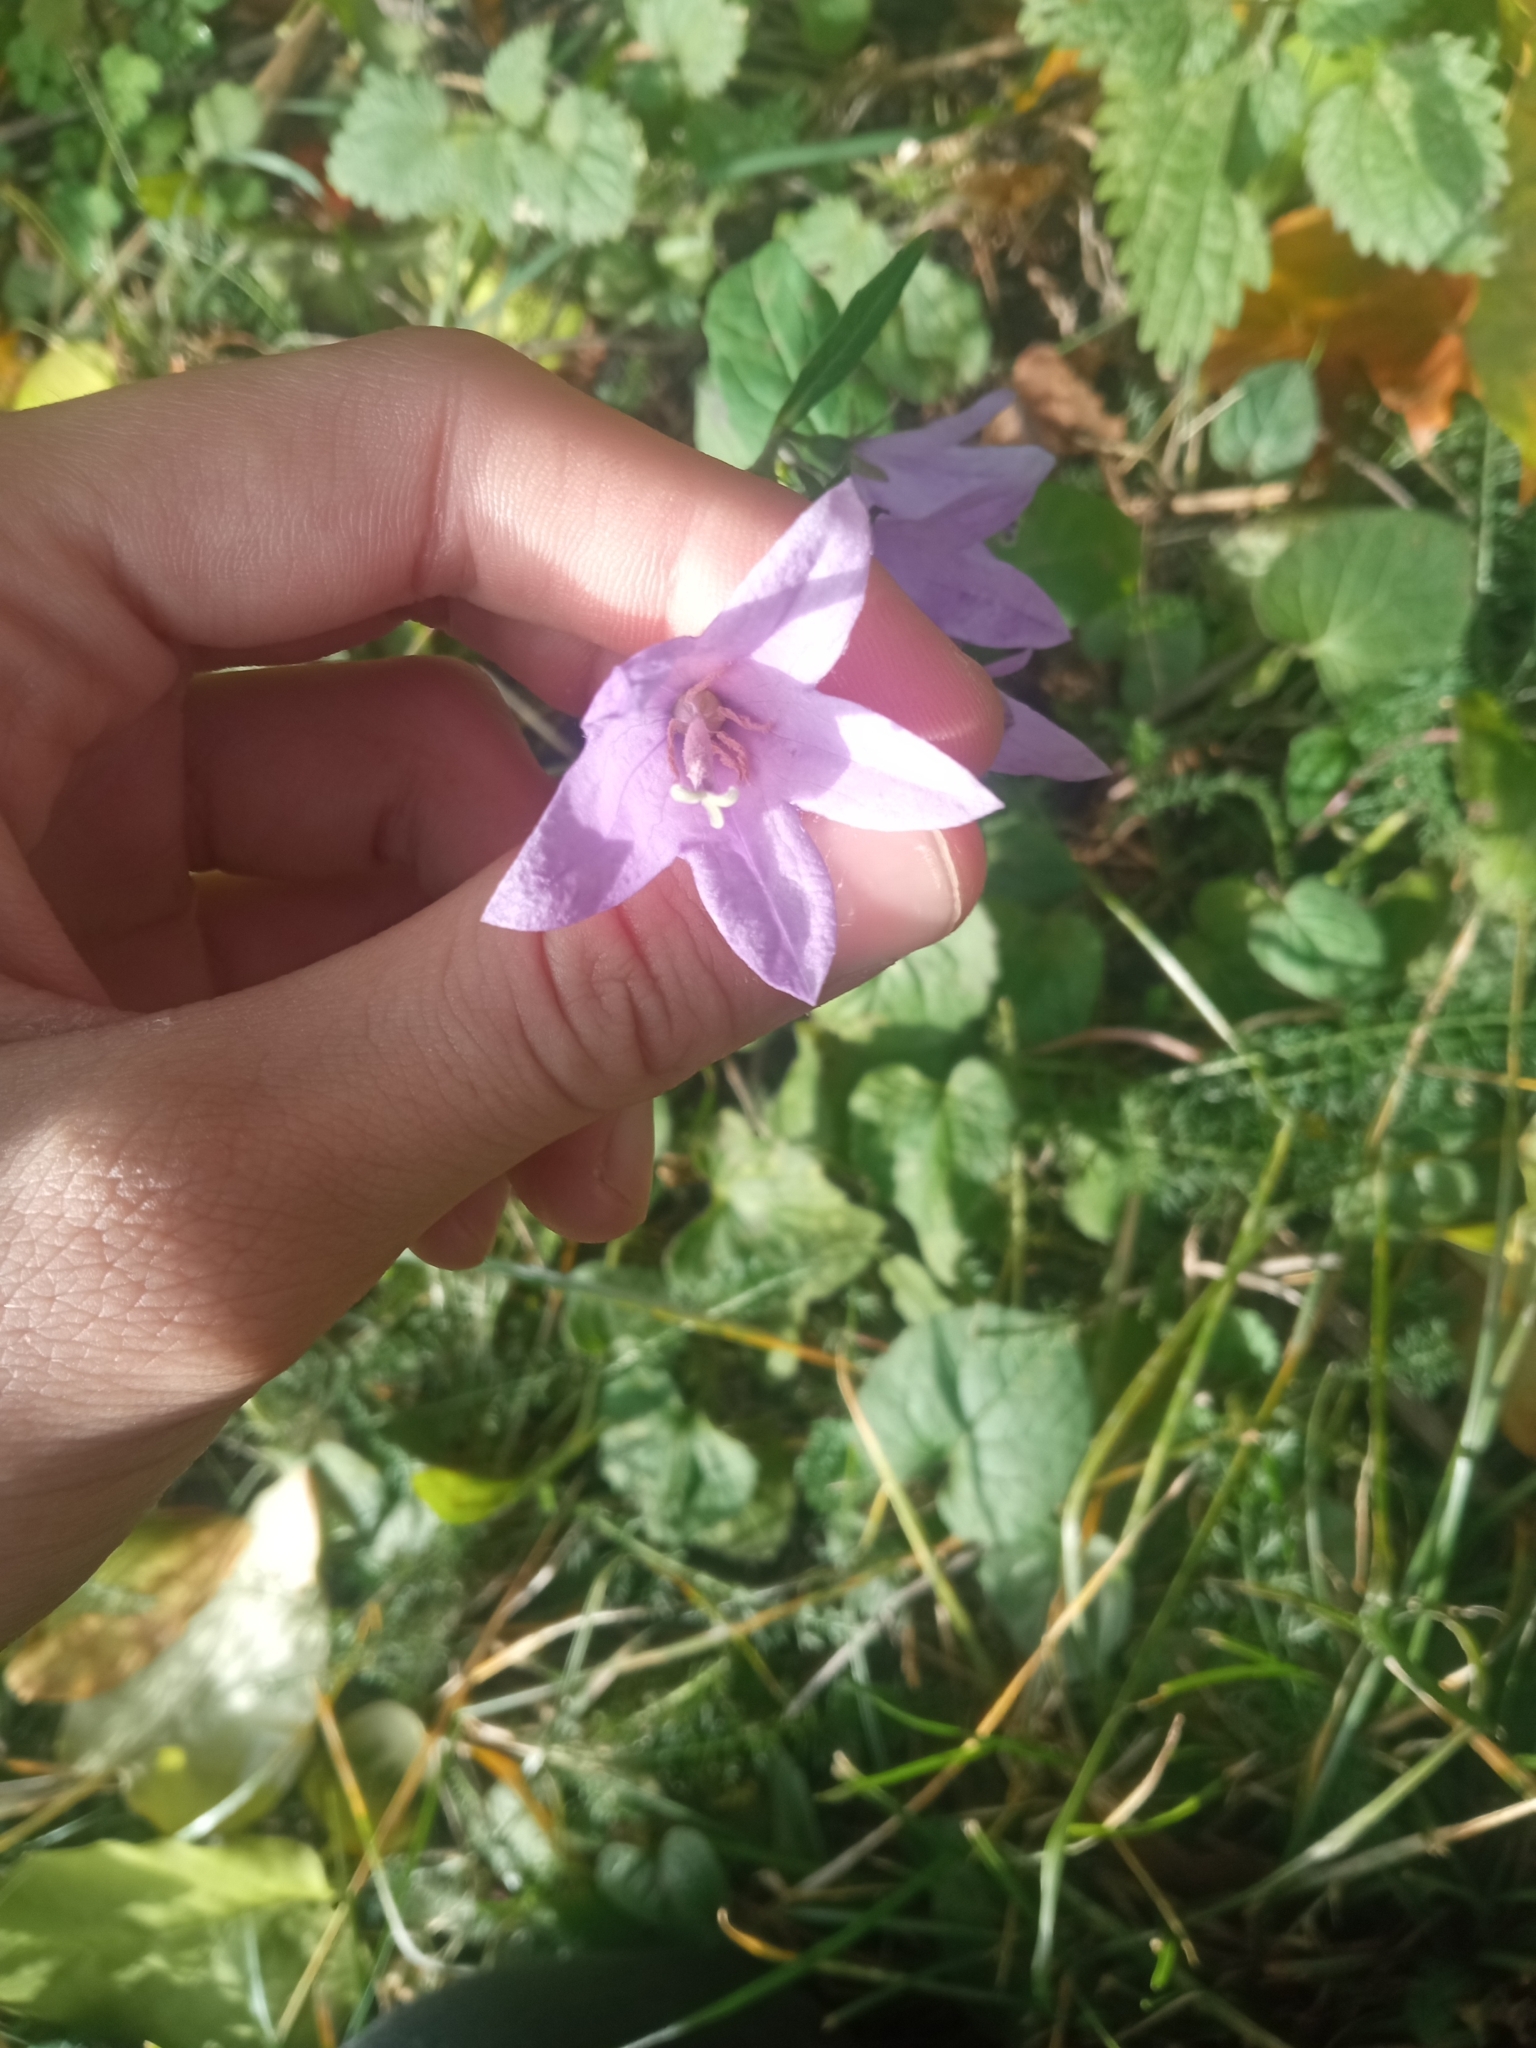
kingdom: Plantae
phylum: Tracheophyta
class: Magnoliopsida
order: Asterales
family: Campanulaceae
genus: Campanula
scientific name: Campanula rapunculoides
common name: Creeping bellflower
